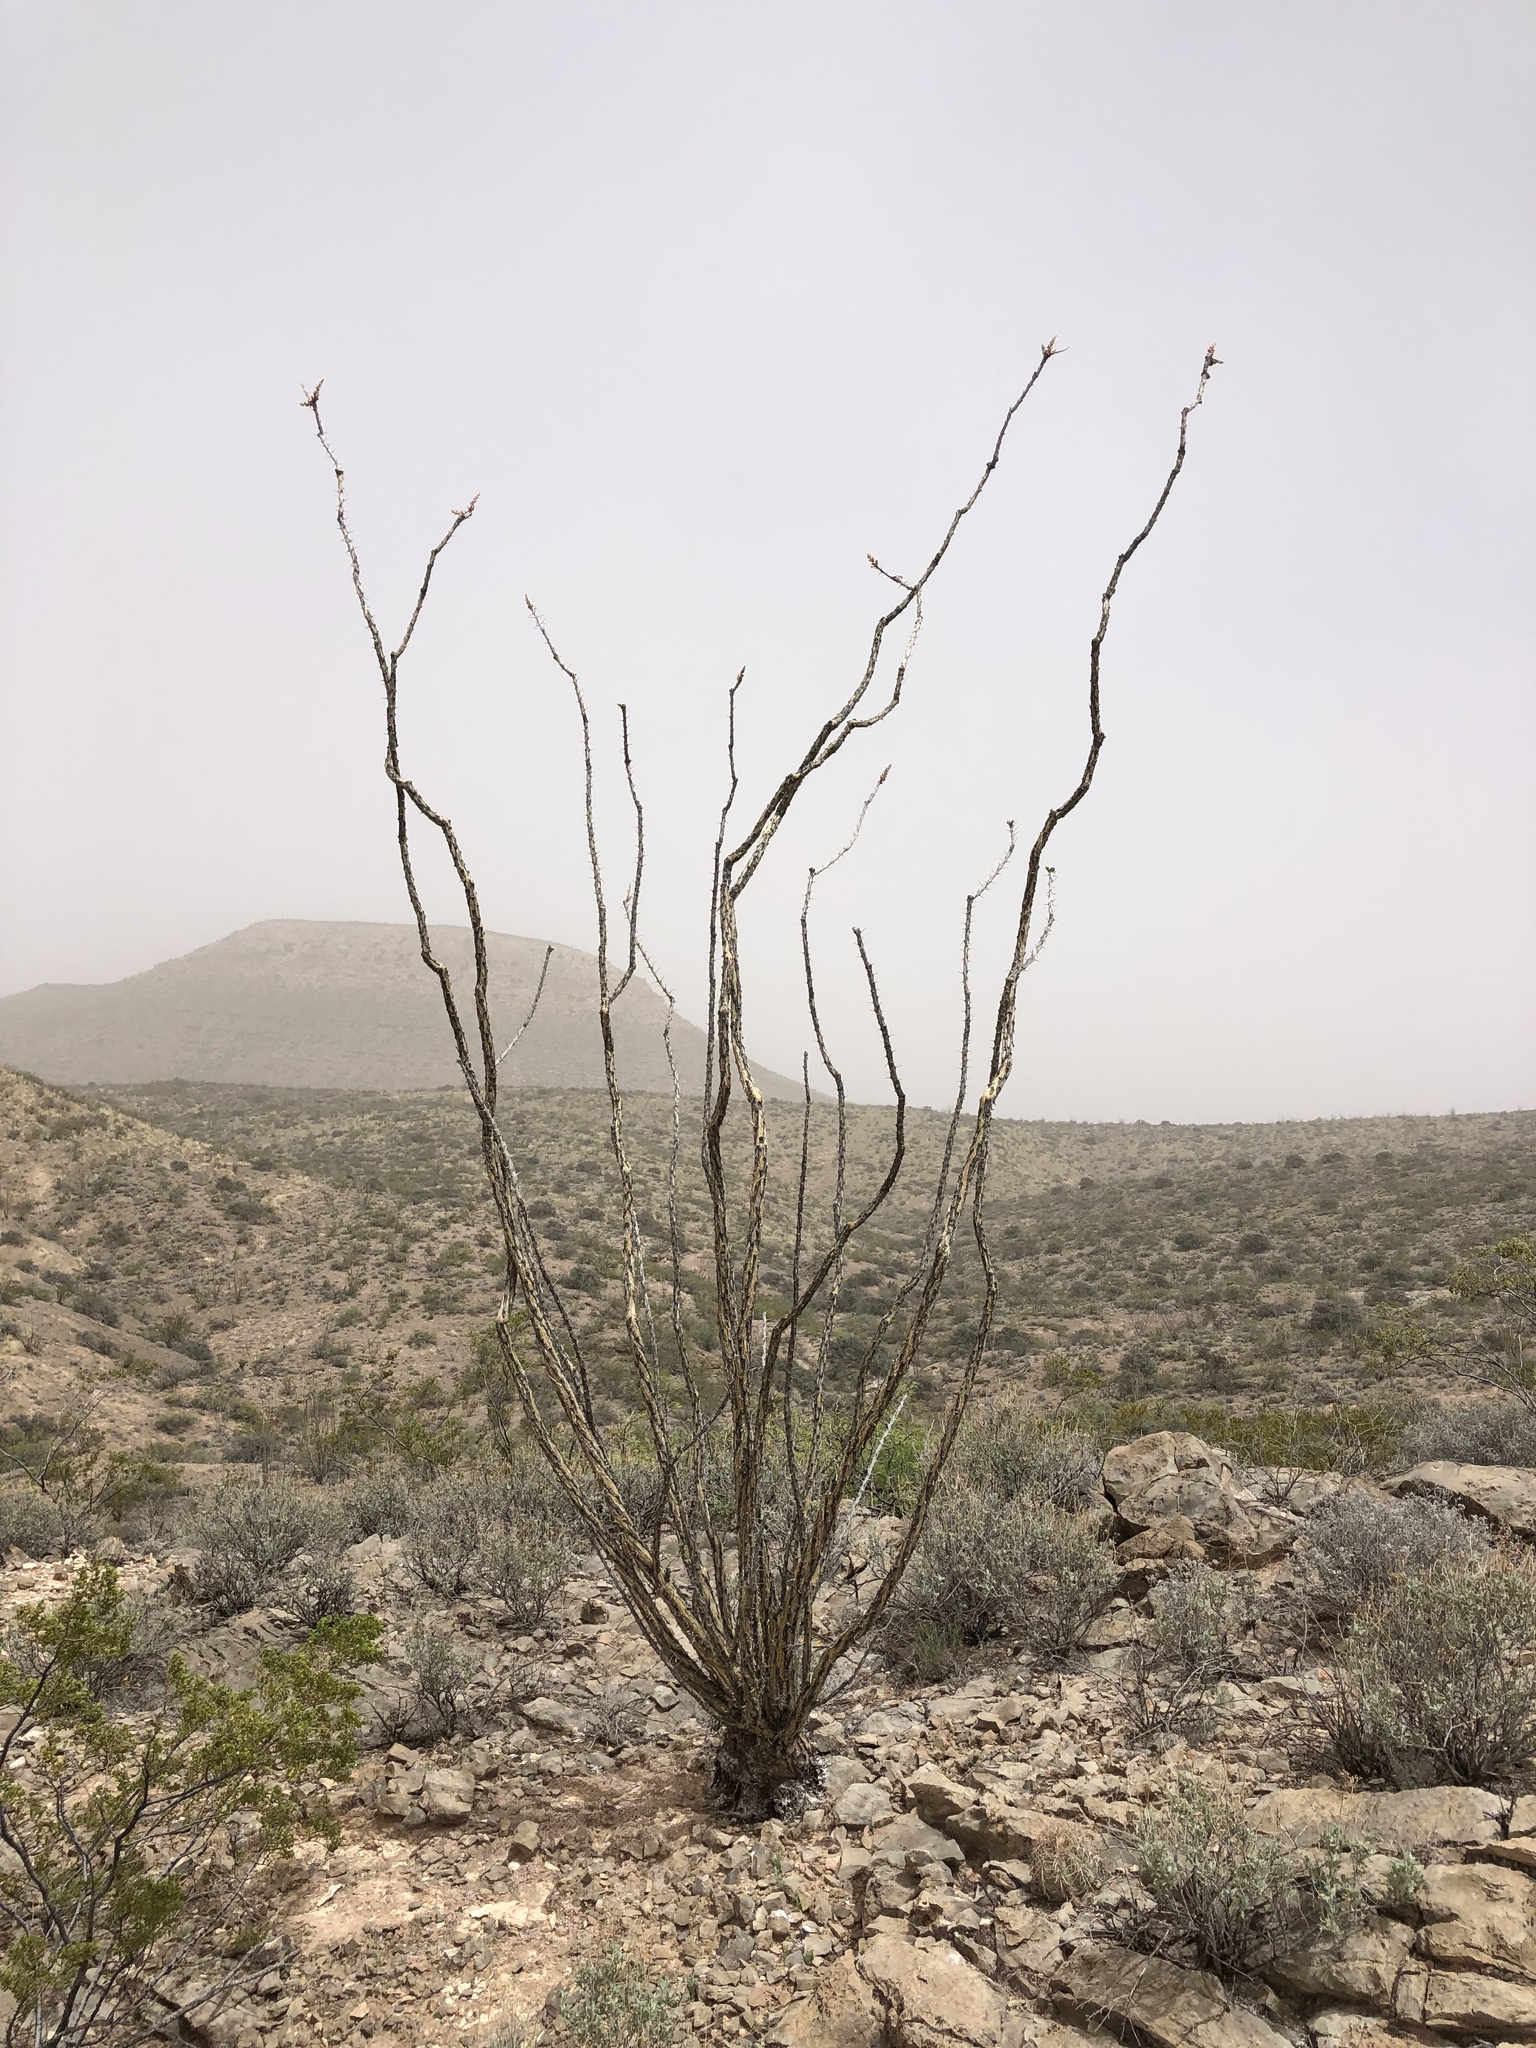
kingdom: Plantae
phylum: Tracheophyta
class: Magnoliopsida
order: Ericales
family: Fouquieriaceae
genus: Fouquieria
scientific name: Fouquieria splendens
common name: Vine-cactus
